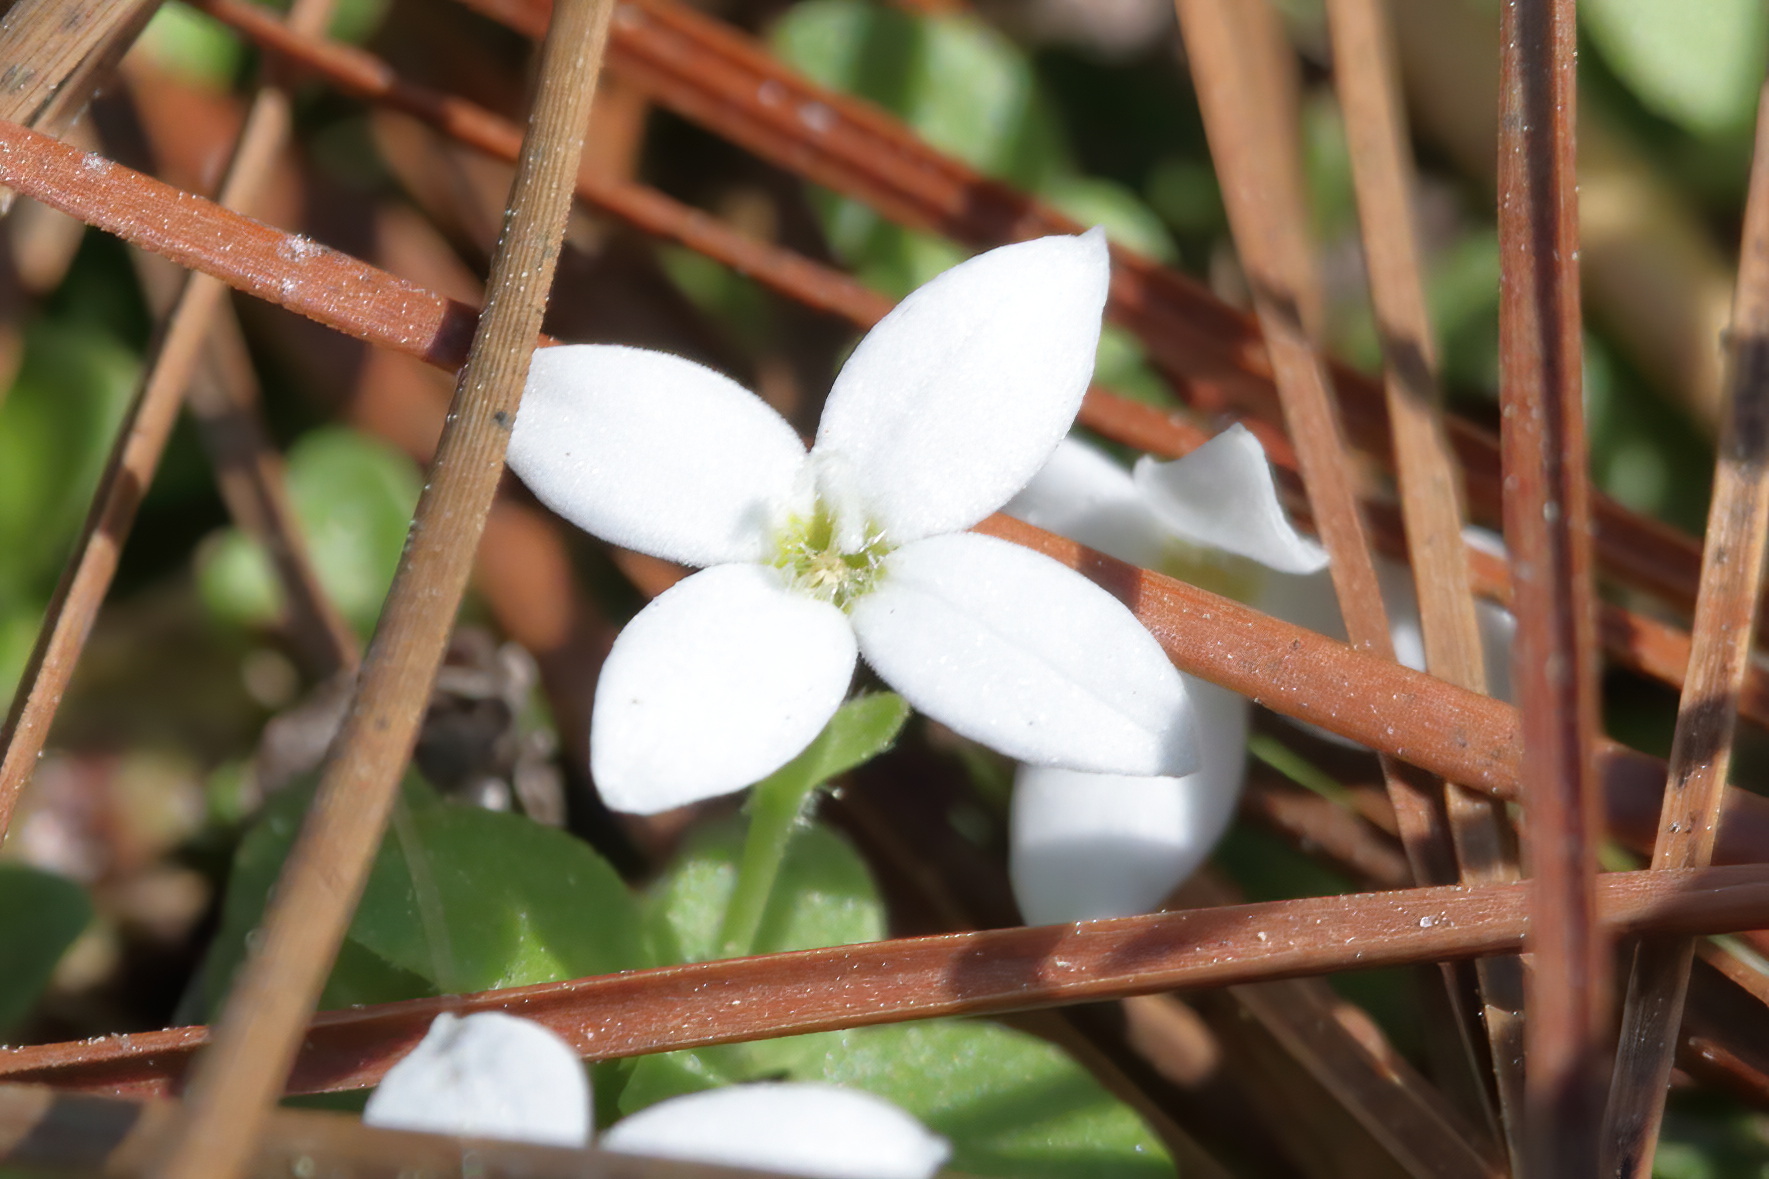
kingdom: Plantae
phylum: Tracheophyta
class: Magnoliopsida
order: Gentianales
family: Rubiaceae
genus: Houstonia
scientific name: Houstonia procumbens
